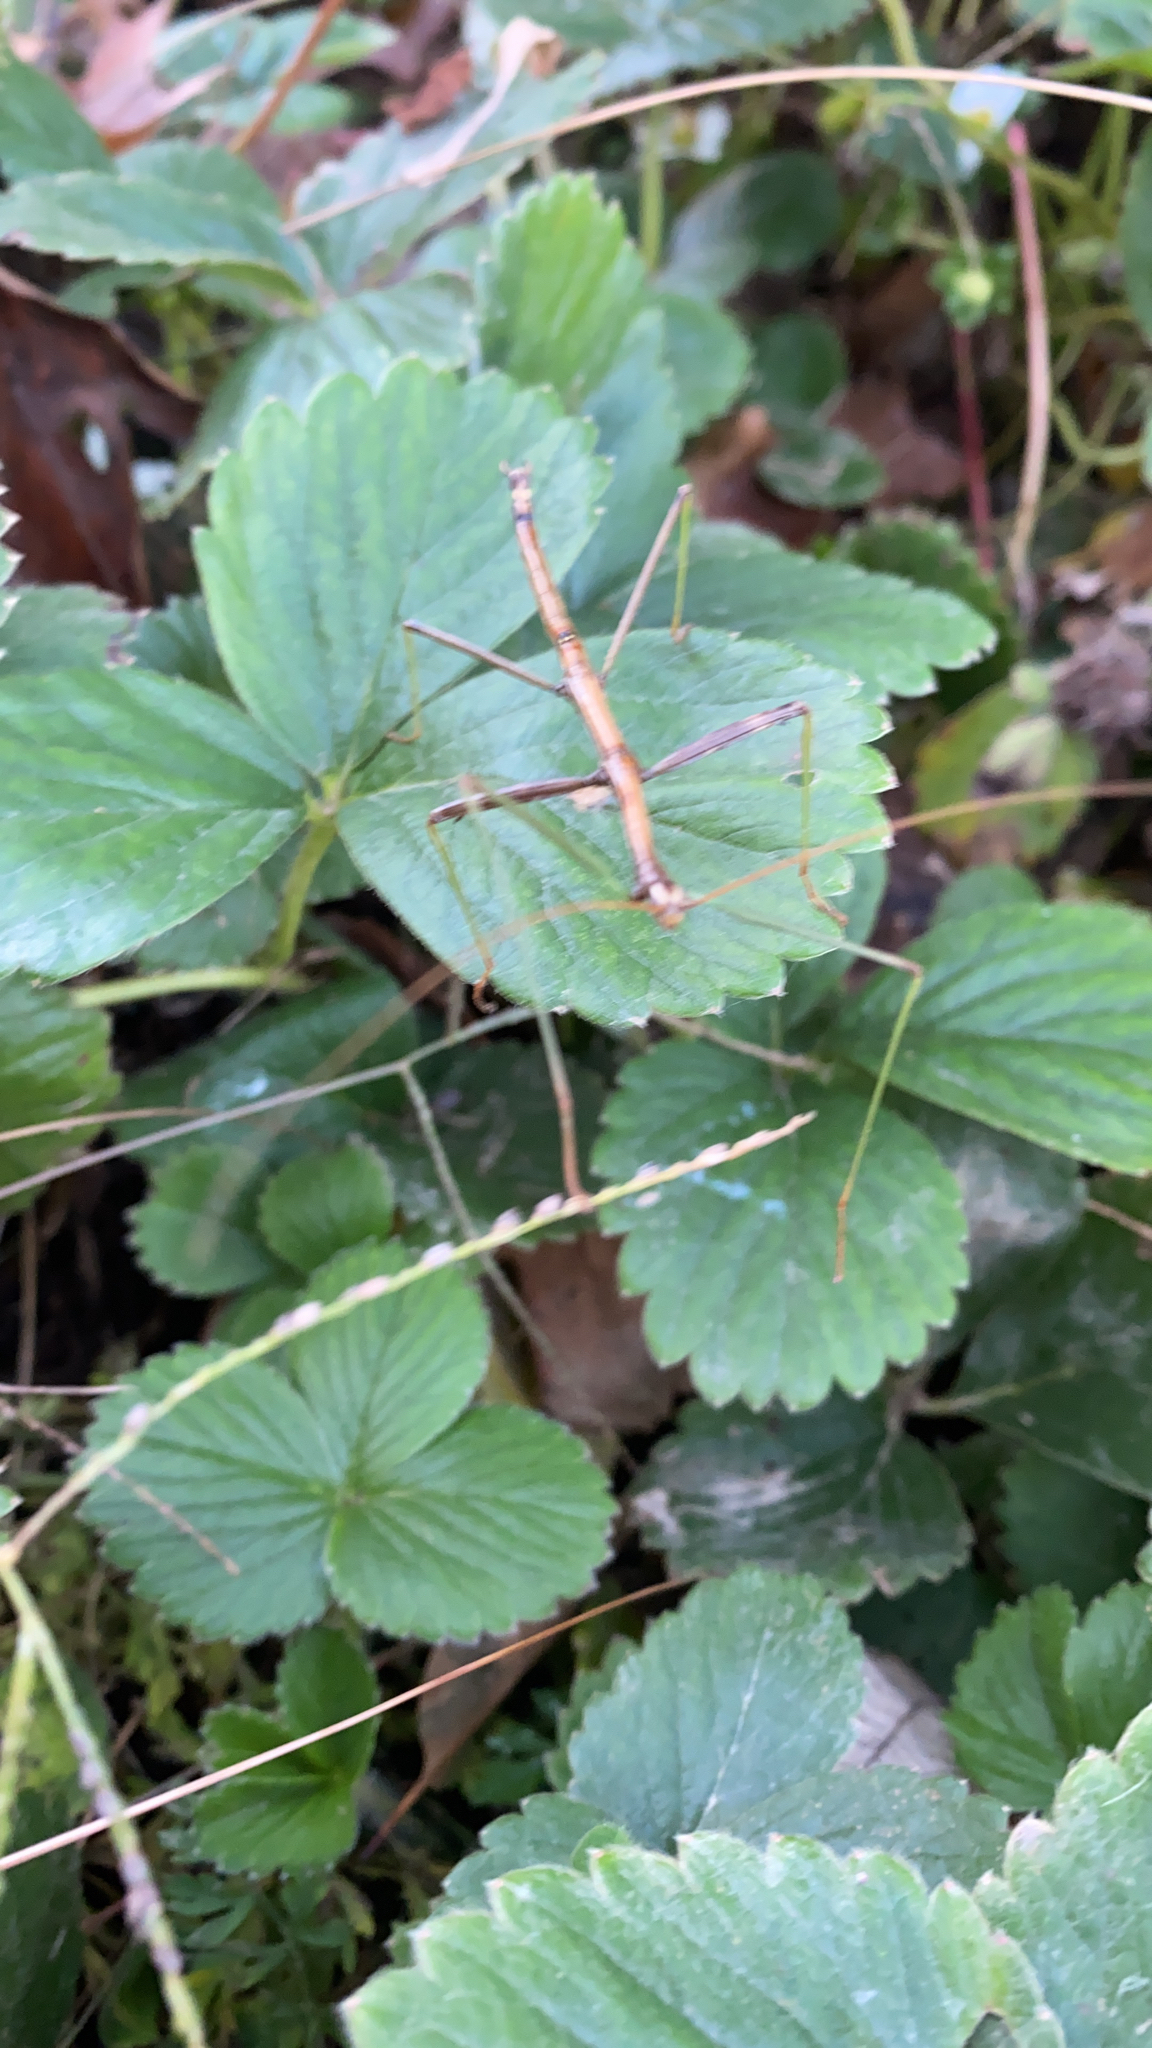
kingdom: Animalia
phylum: Arthropoda
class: Insecta
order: Phasmida
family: Diapheromeridae
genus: Diapheromera
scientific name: Diapheromera femorata
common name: Common american walkingstick
